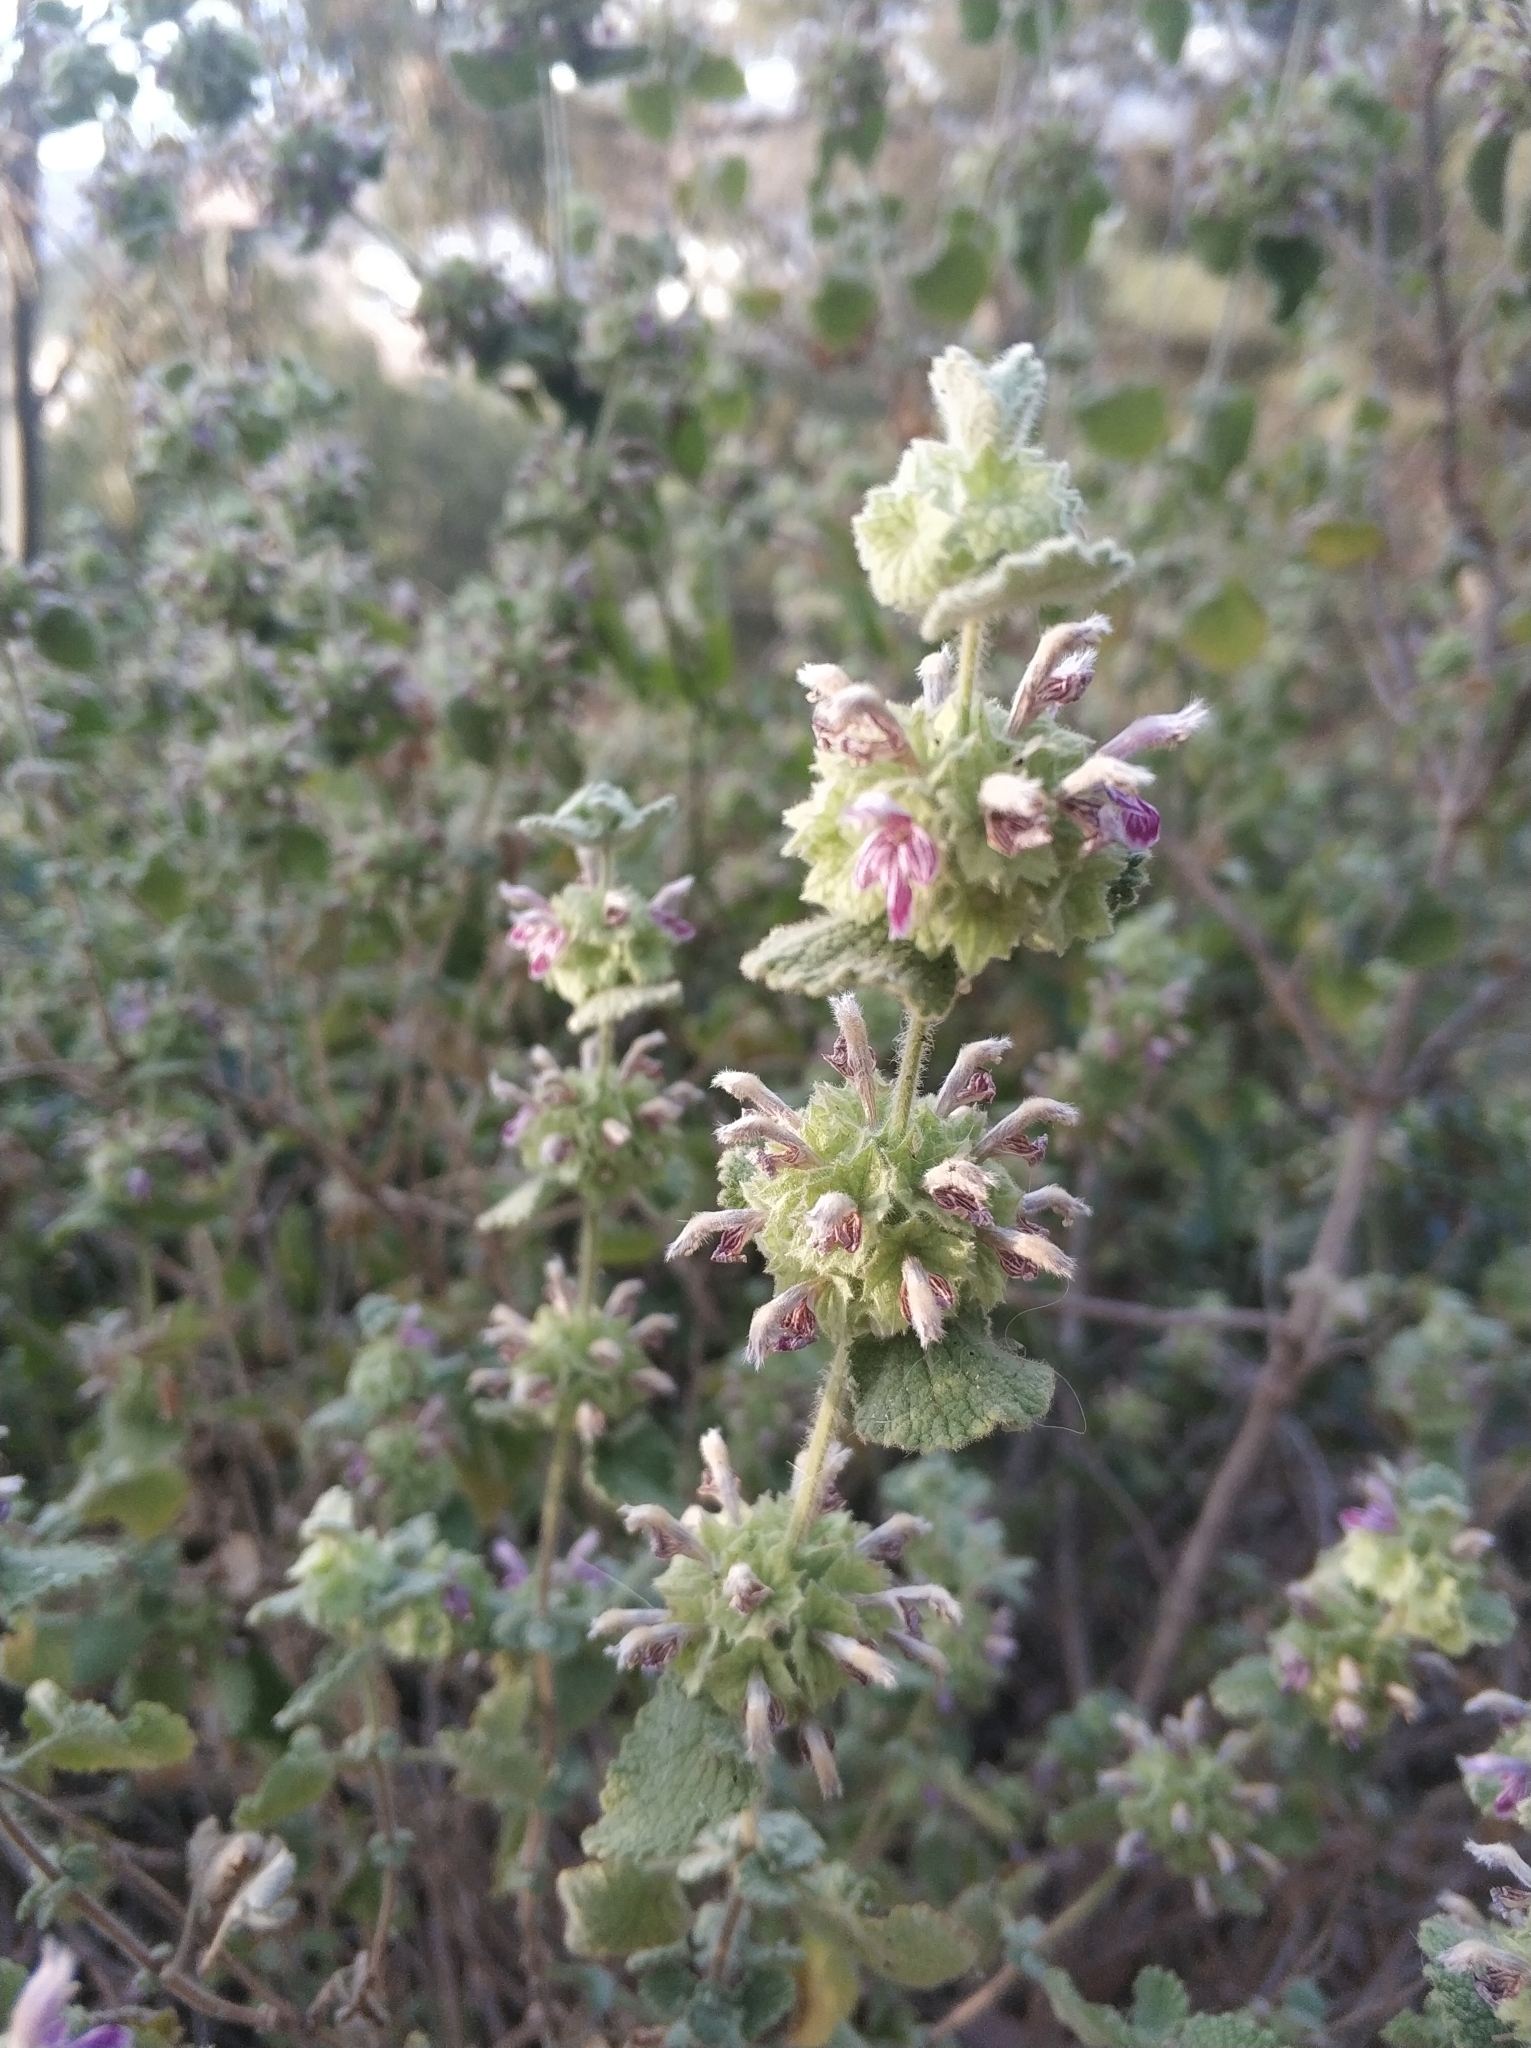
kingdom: Plantae
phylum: Tracheophyta
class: Magnoliopsida
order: Lamiales
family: Lamiaceae
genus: Pseudodictamnus
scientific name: Pseudodictamnus hirsutus
